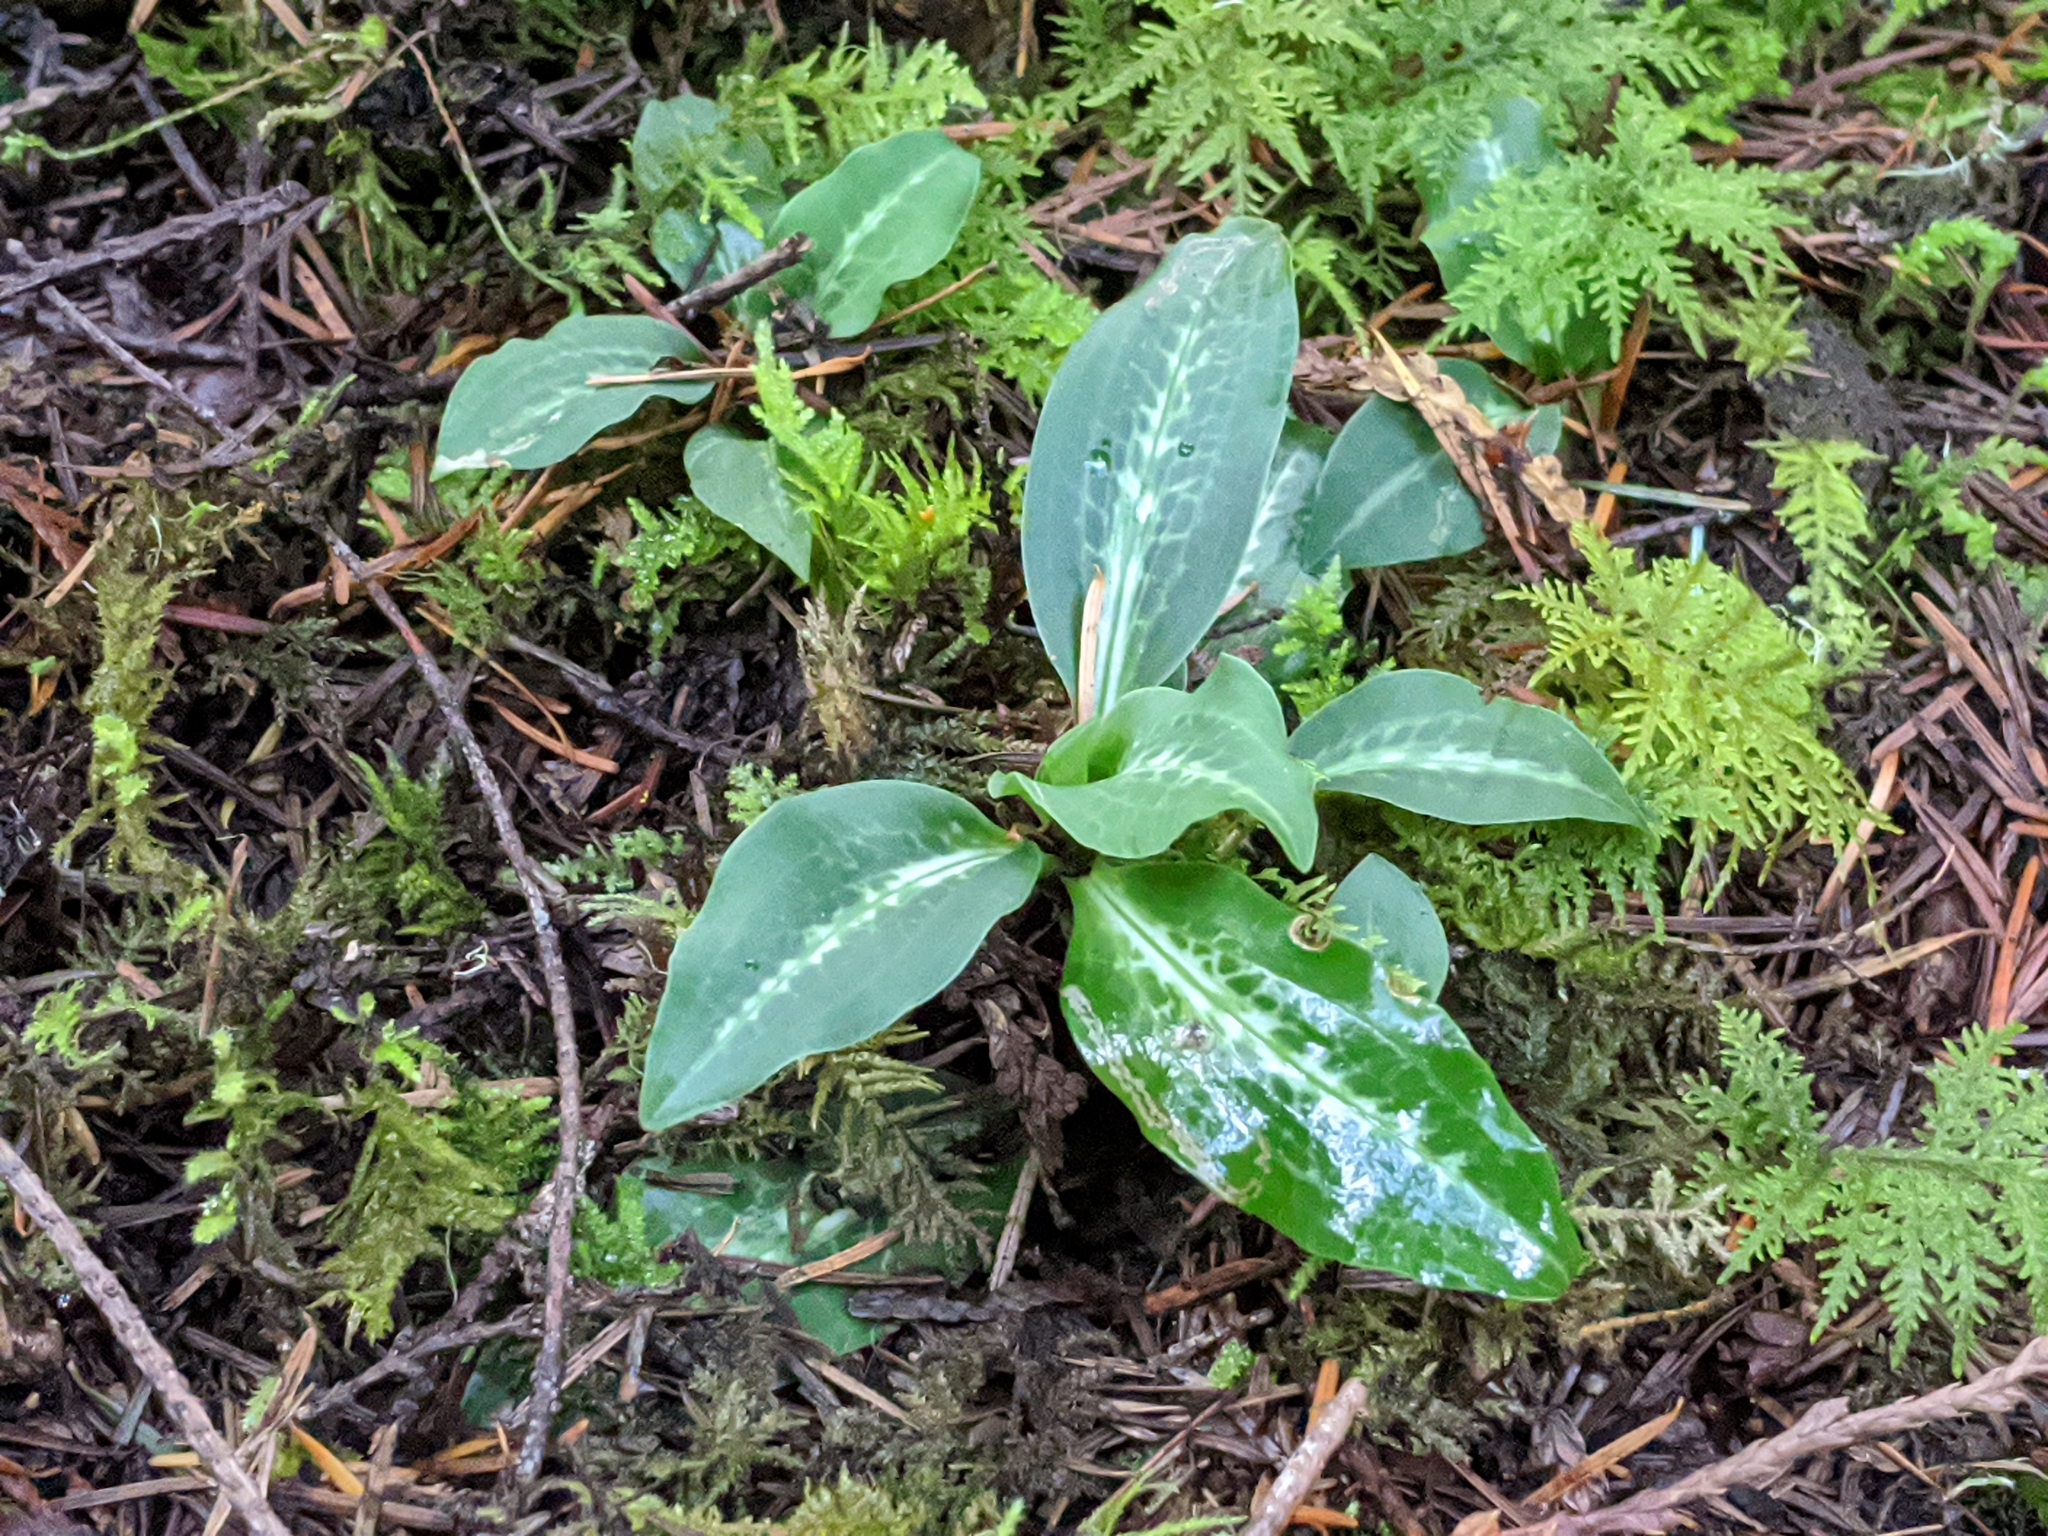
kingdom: Plantae
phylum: Tracheophyta
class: Liliopsida
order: Asparagales
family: Orchidaceae
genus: Goodyera
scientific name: Goodyera oblongifolia
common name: Giant rattlesnake-plantain
